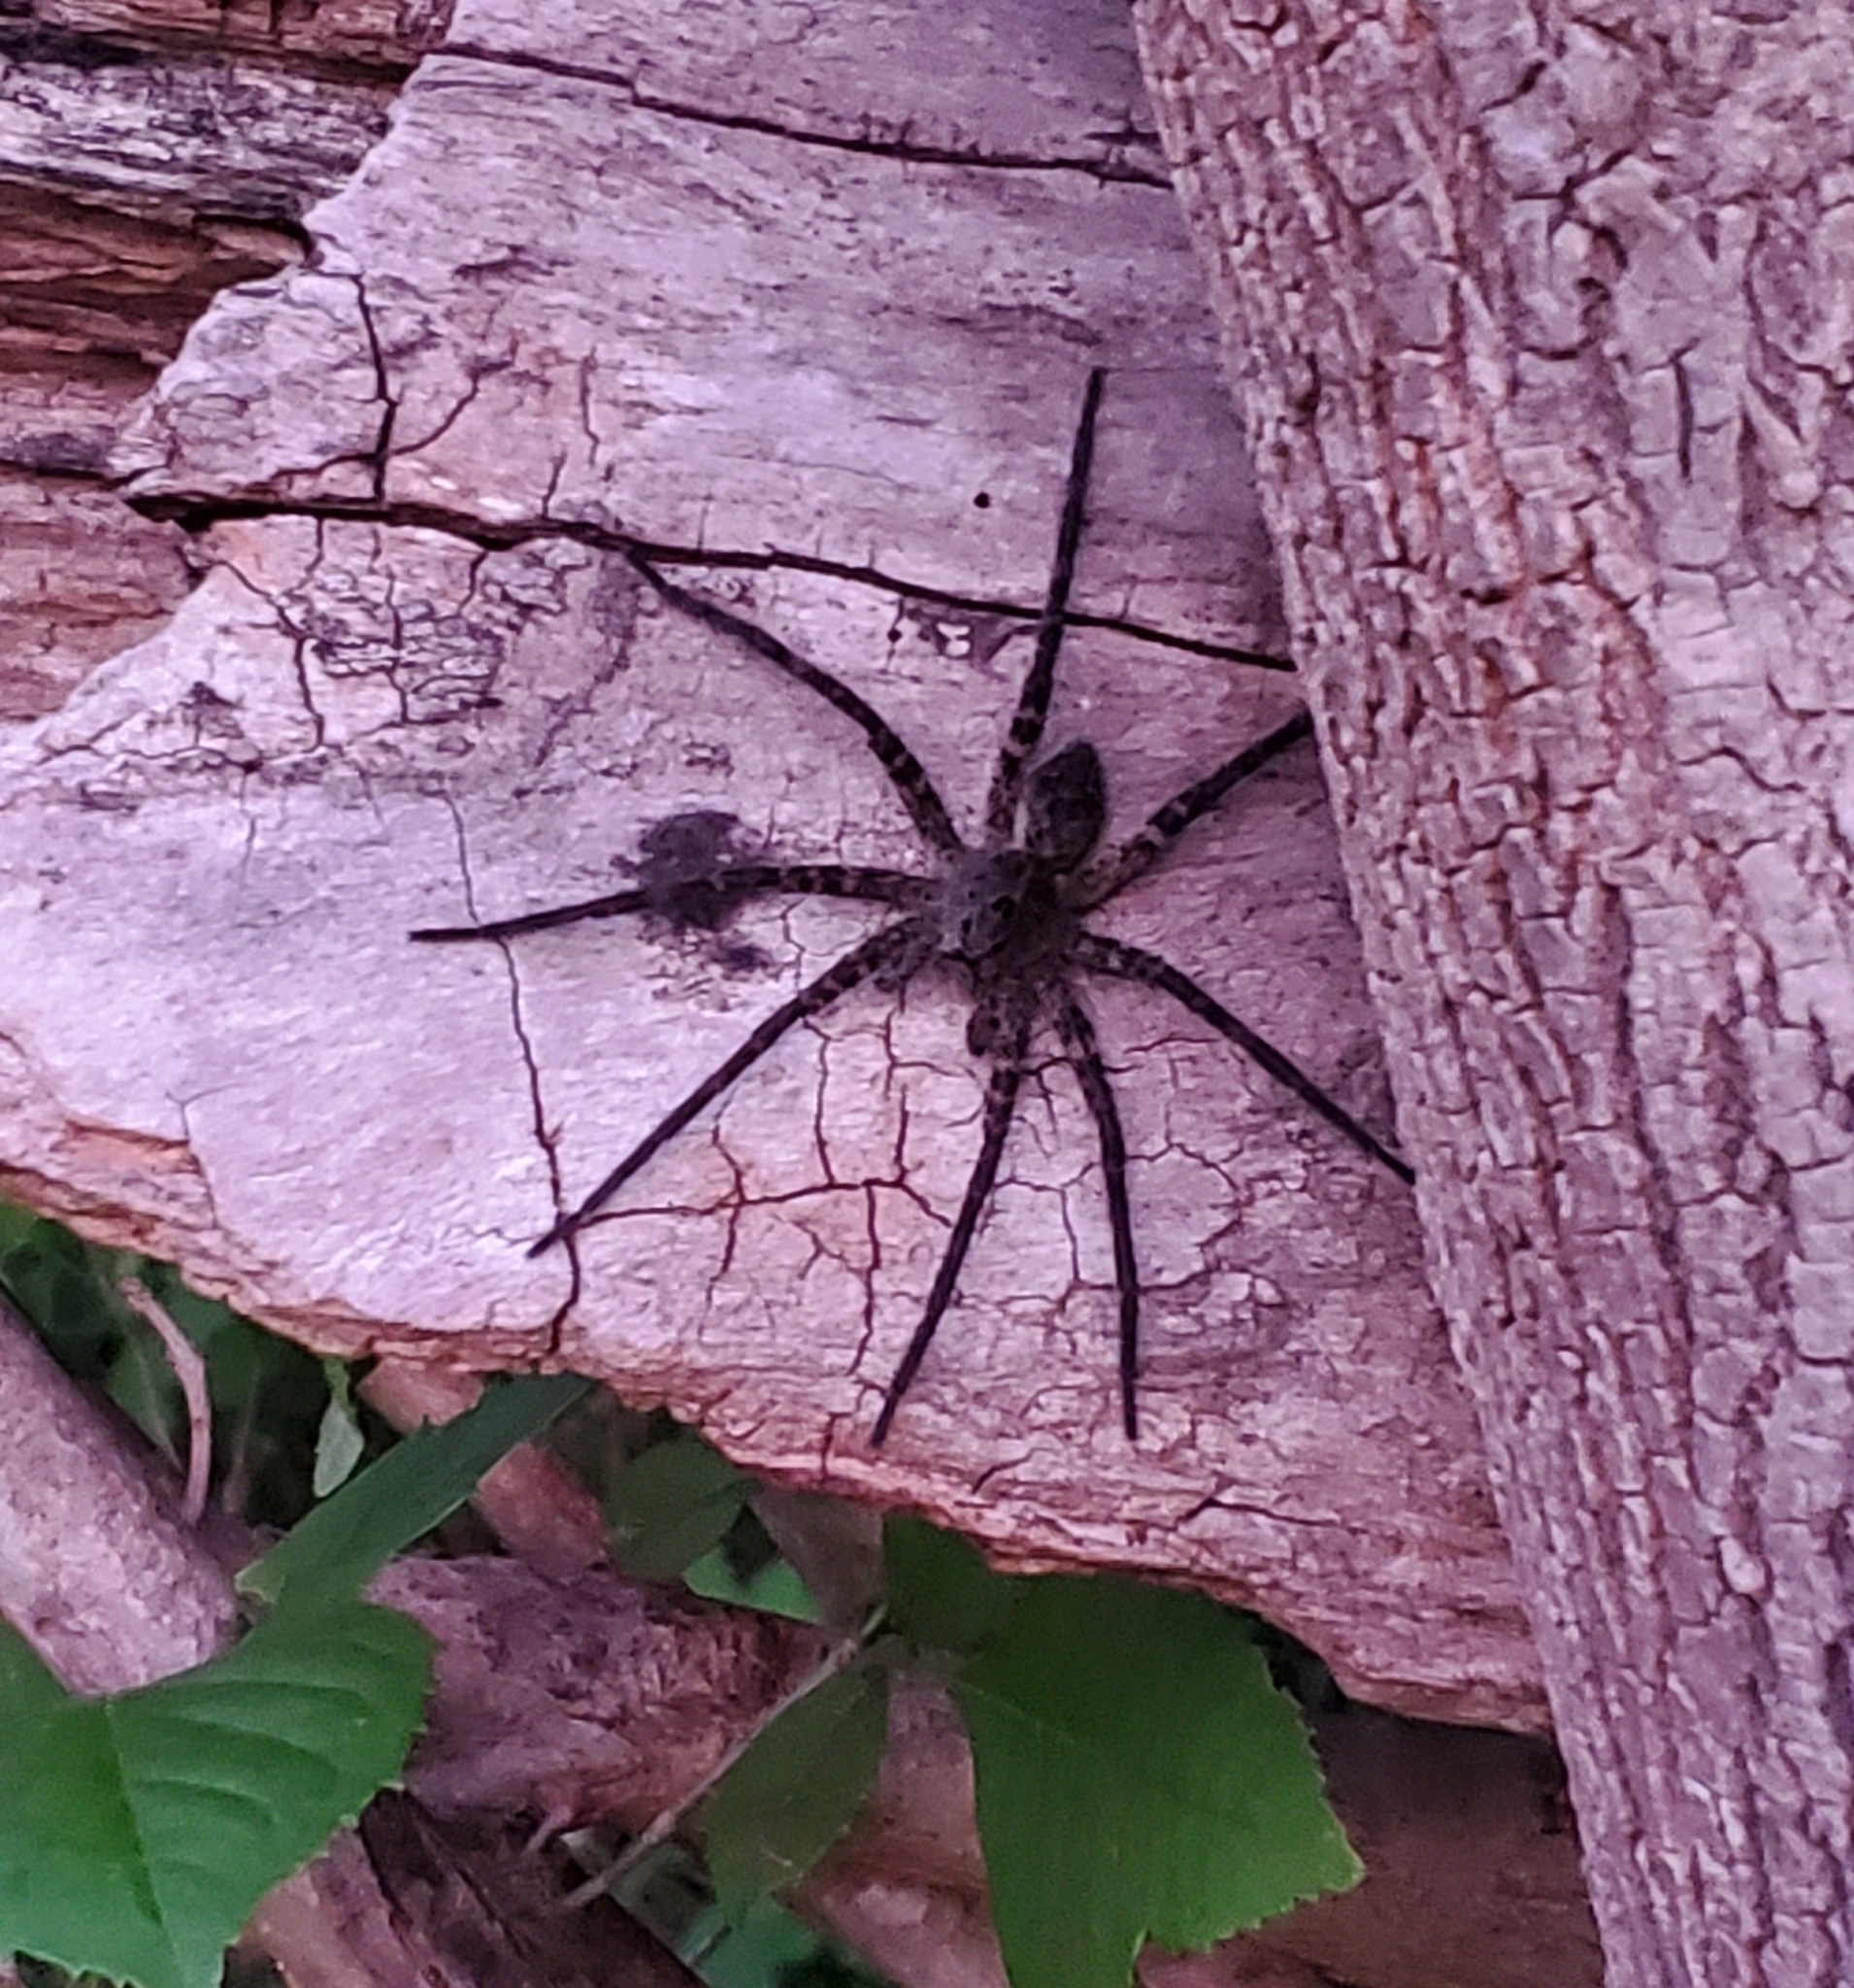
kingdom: Animalia
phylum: Arthropoda
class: Arachnida
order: Araneae
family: Pisauridae
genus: Dolomedes
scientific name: Dolomedes vittatus
